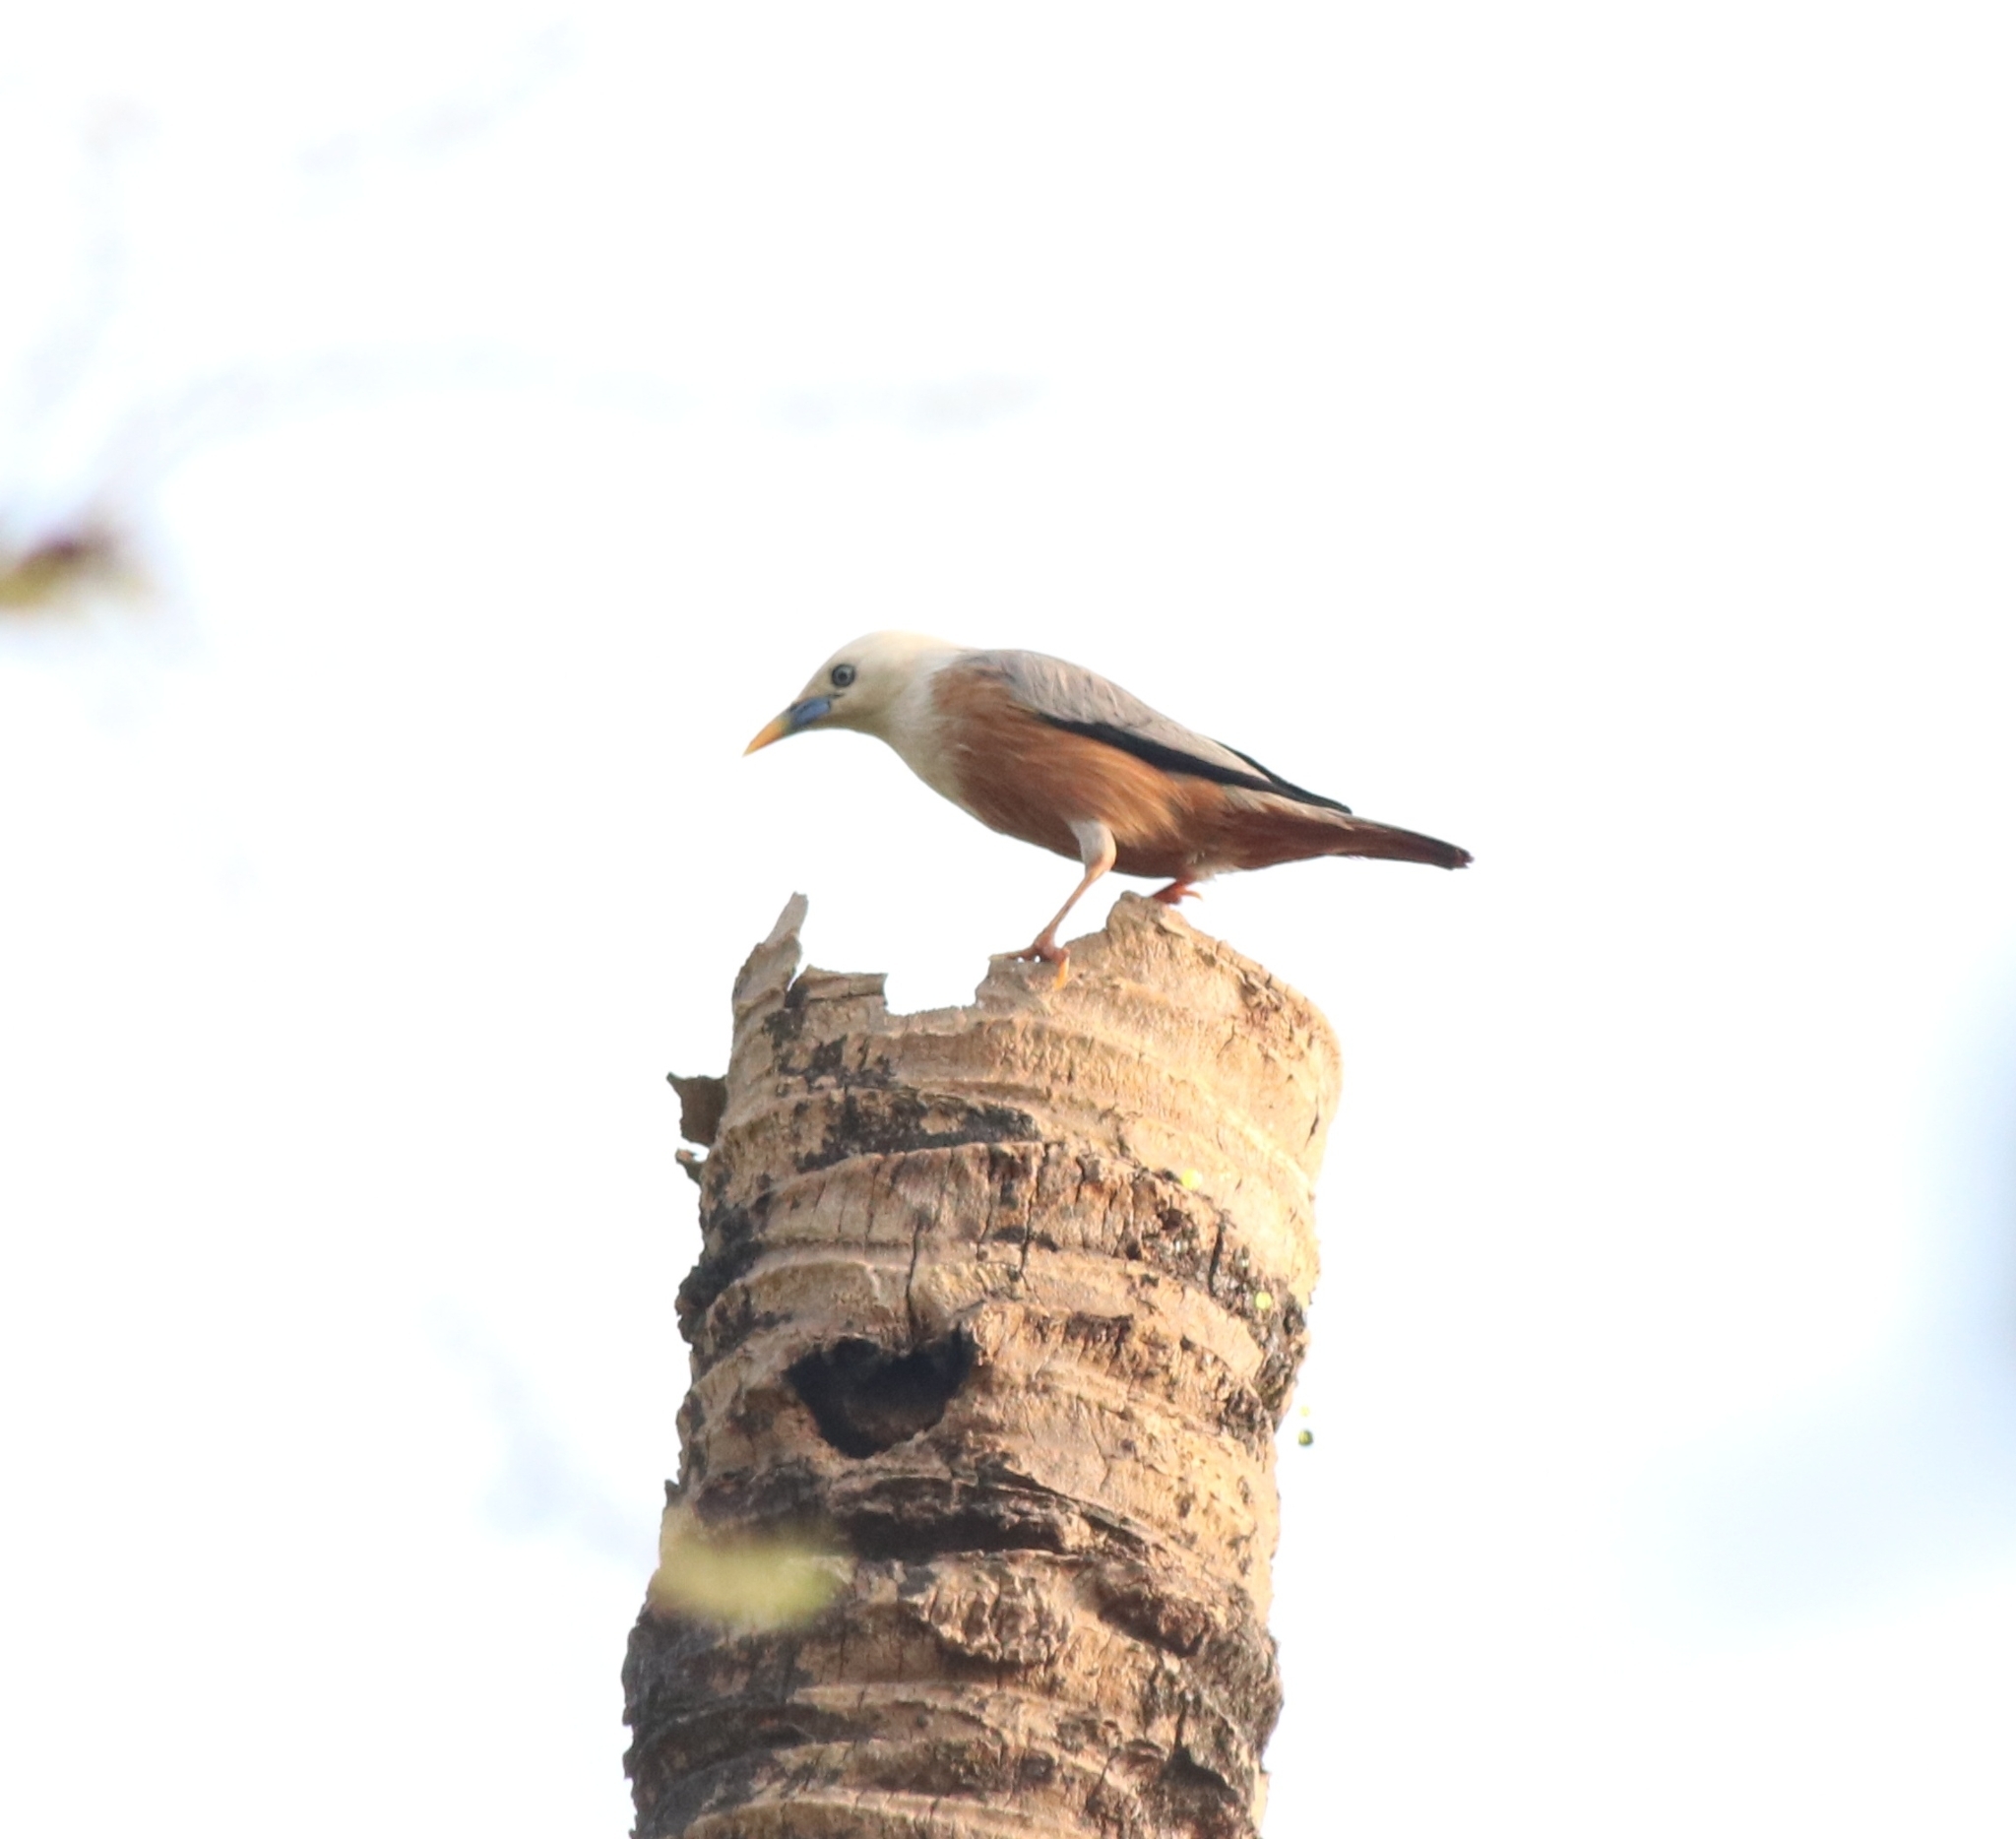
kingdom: Animalia
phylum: Chordata
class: Aves
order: Passeriformes
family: Sturnidae
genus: Sturnia
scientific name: Sturnia blythii
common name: Malabar starling
